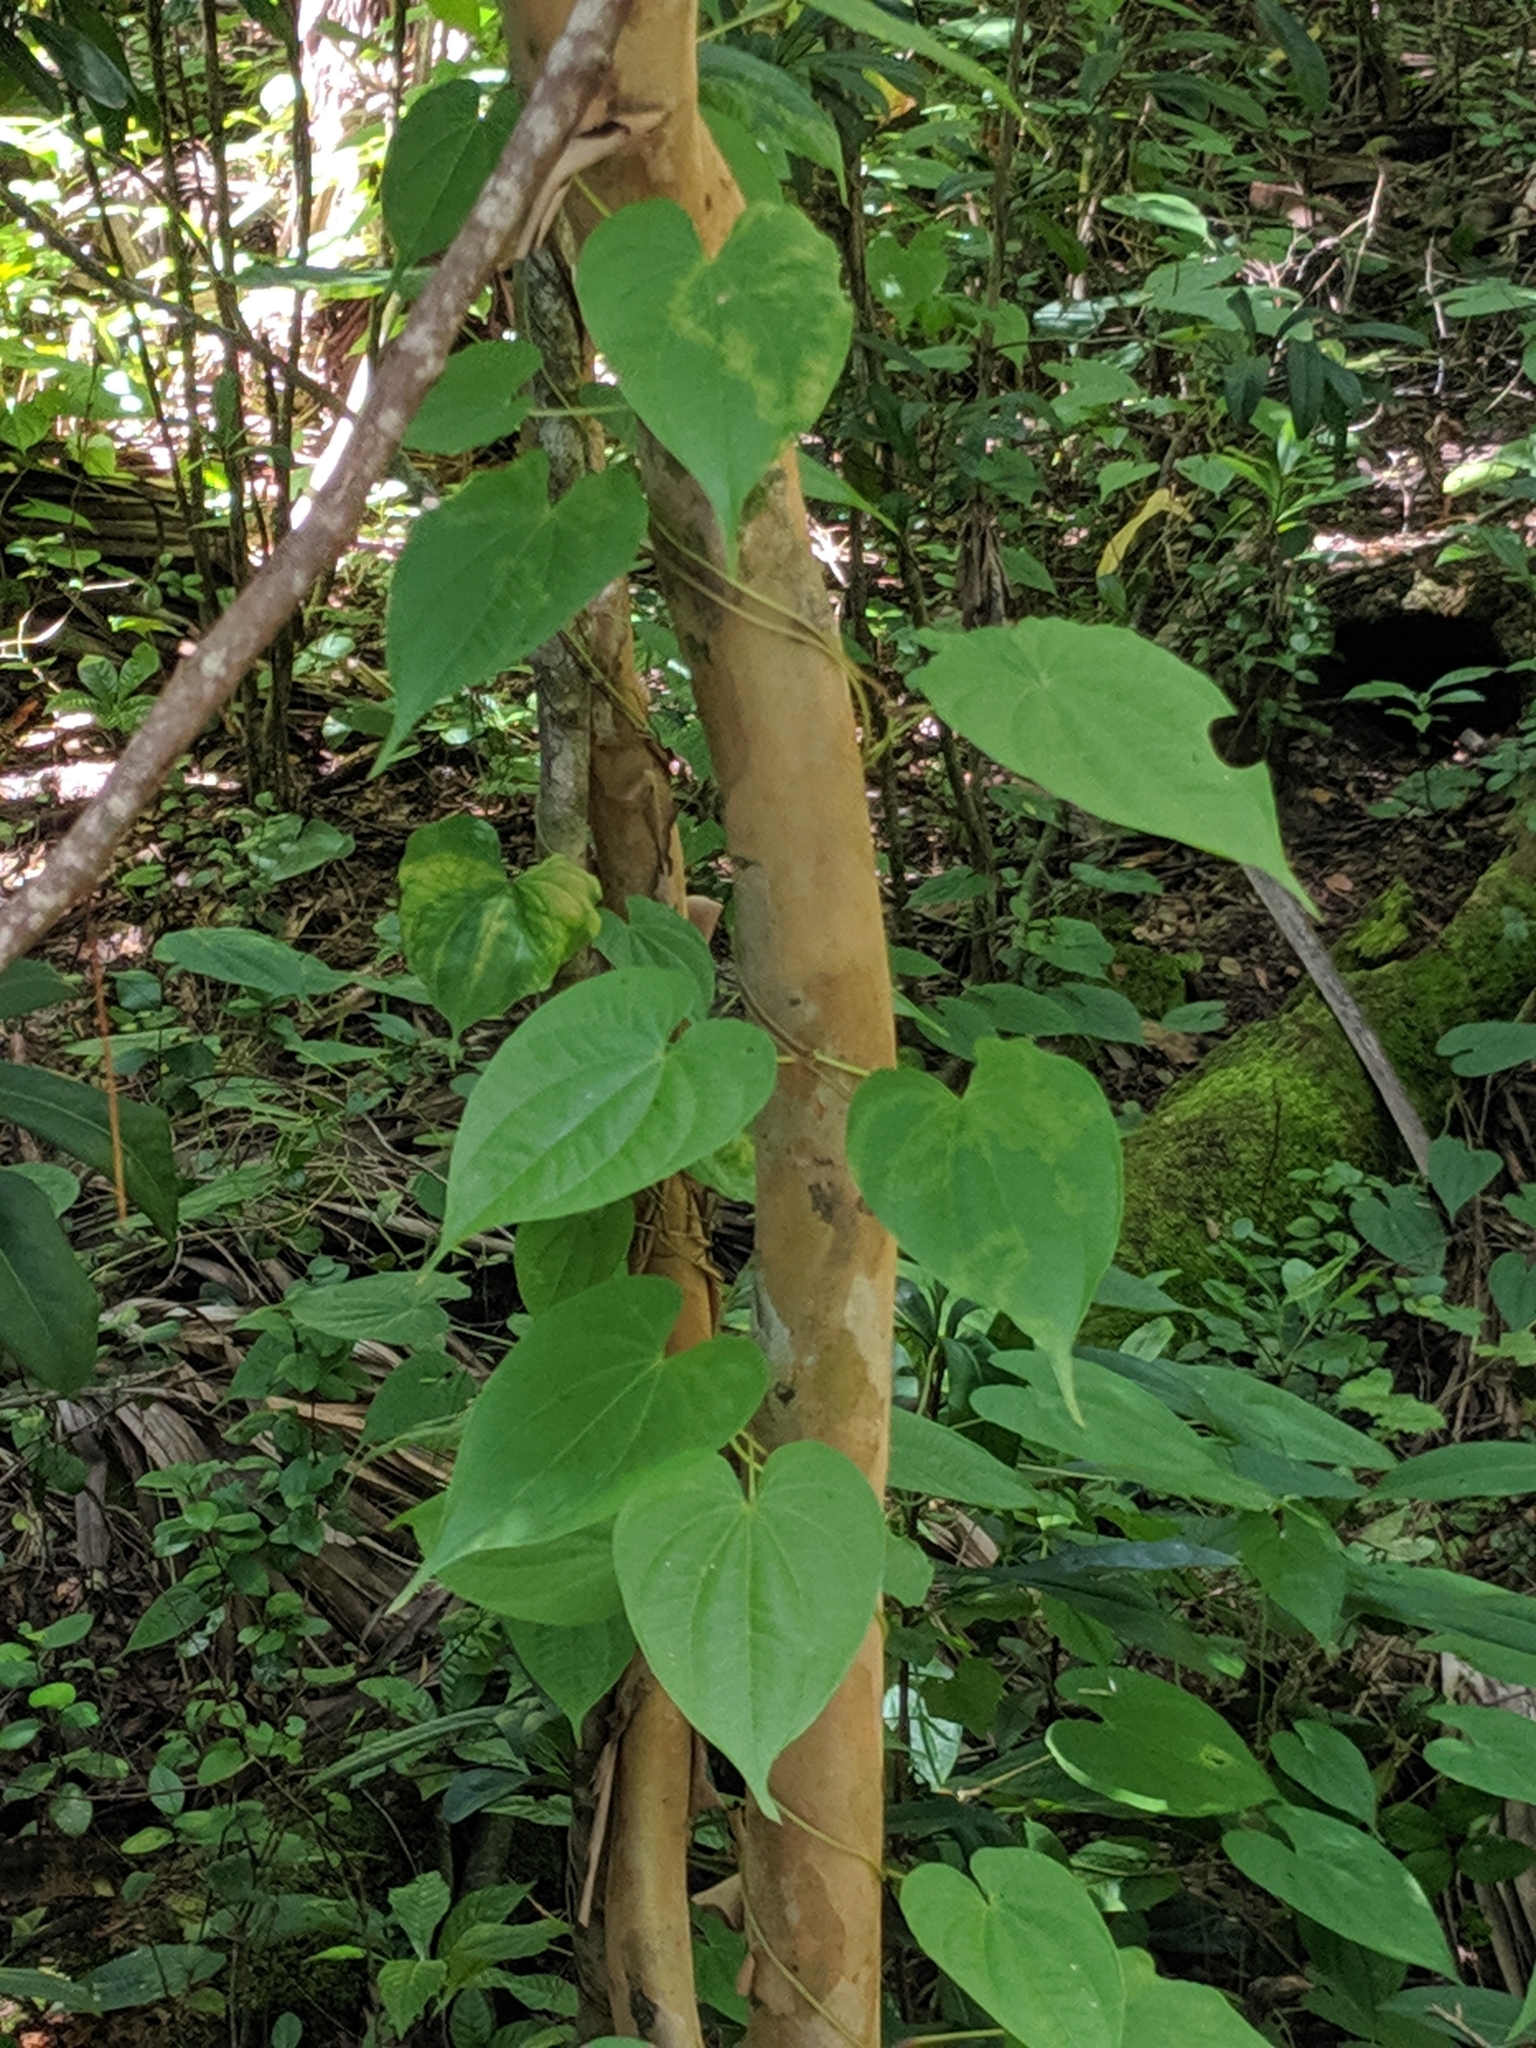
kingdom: Plantae
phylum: Tracheophyta
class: Liliopsida
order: Dioscoreales
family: Dioscoreaceae
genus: Dioscorea
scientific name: Dioscorea bulbifera
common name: Air yam
